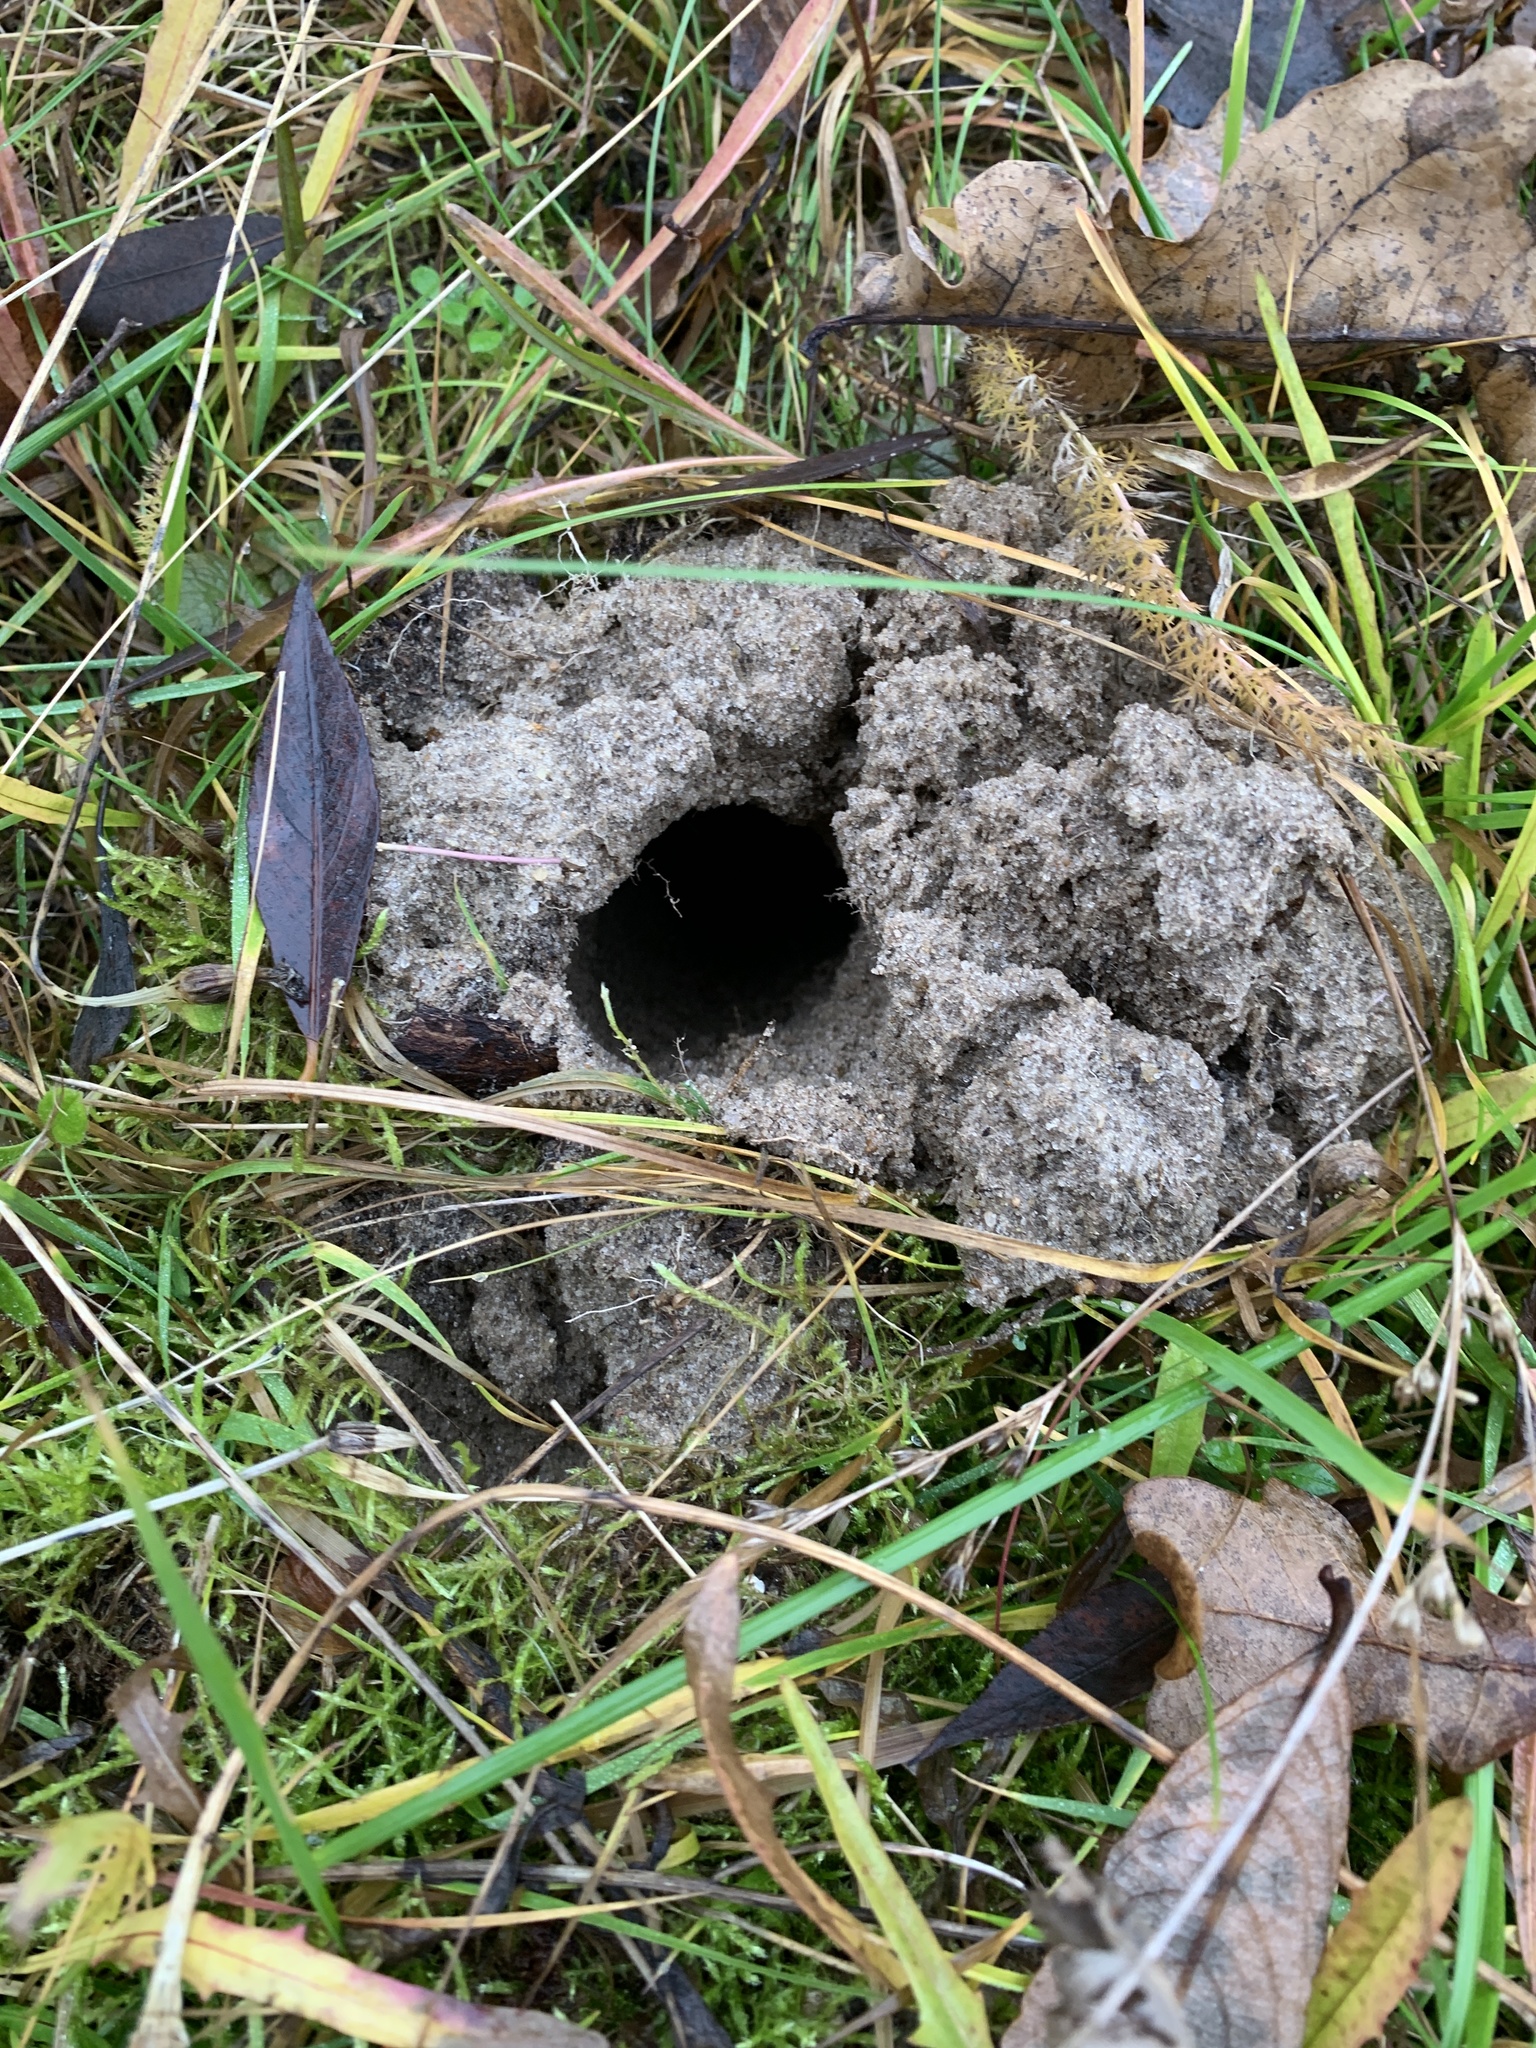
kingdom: Animalia
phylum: Chordata
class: Mammalia
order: Soricomorpha
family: Talpidae
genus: Talpa
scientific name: Talpa europaea
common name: European mole
